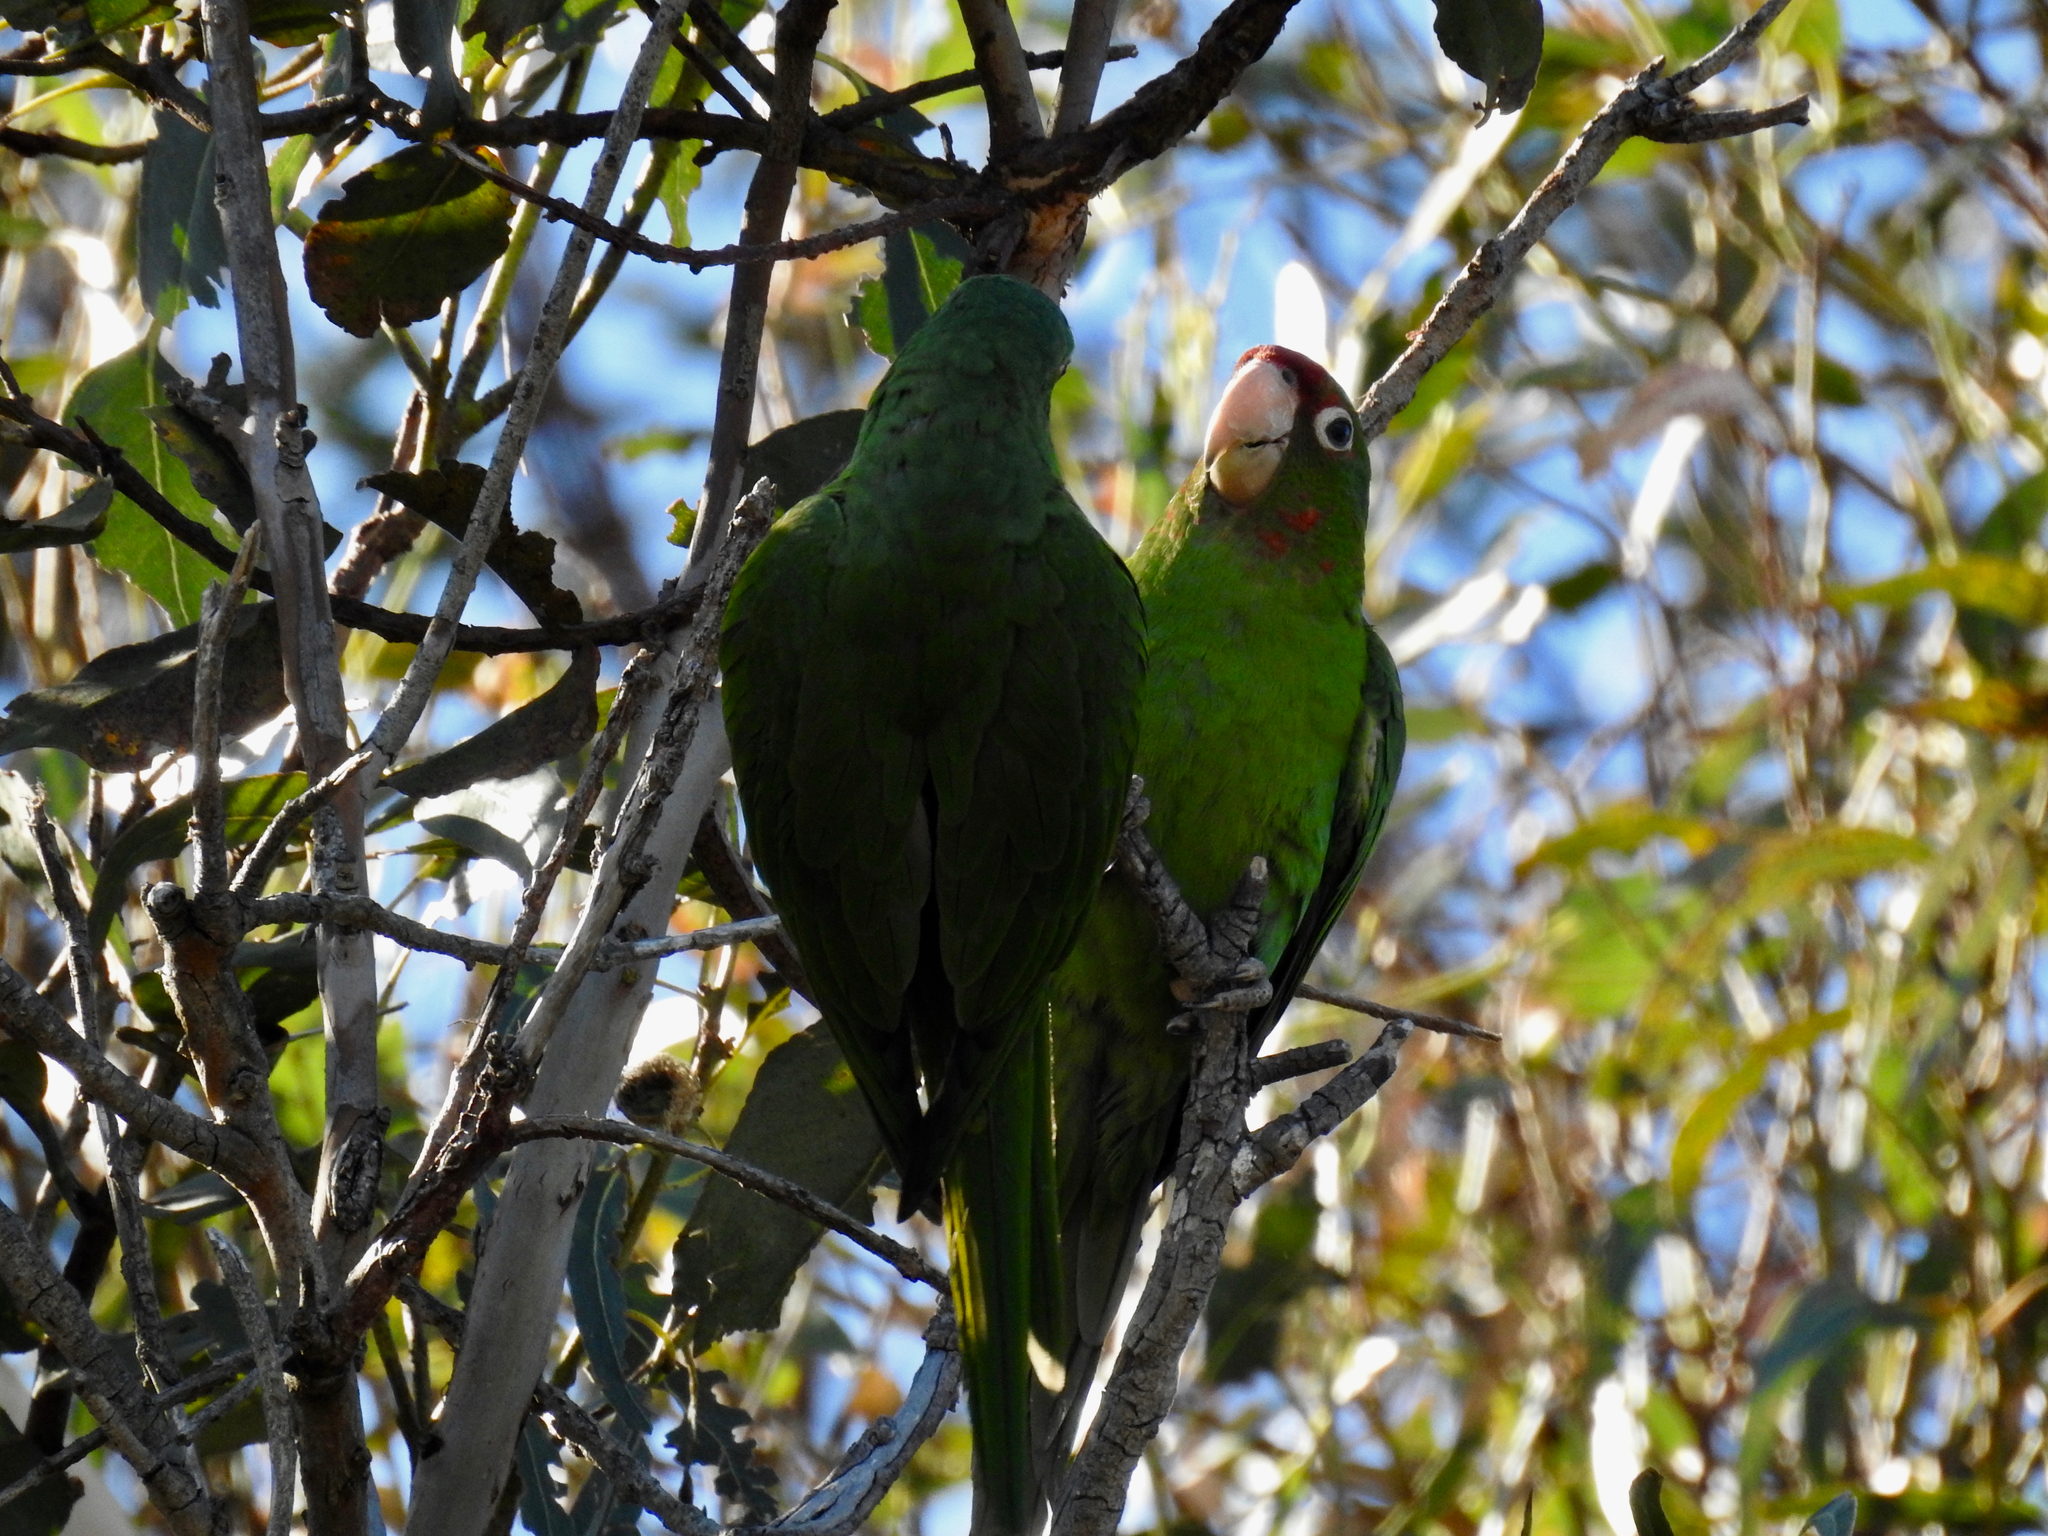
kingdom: Animalia
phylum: Chordata
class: Aves
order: Psittaciformes
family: Psittacidae
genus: Aratinga
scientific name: Aratinga mitrata
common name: Mitred parakeet
